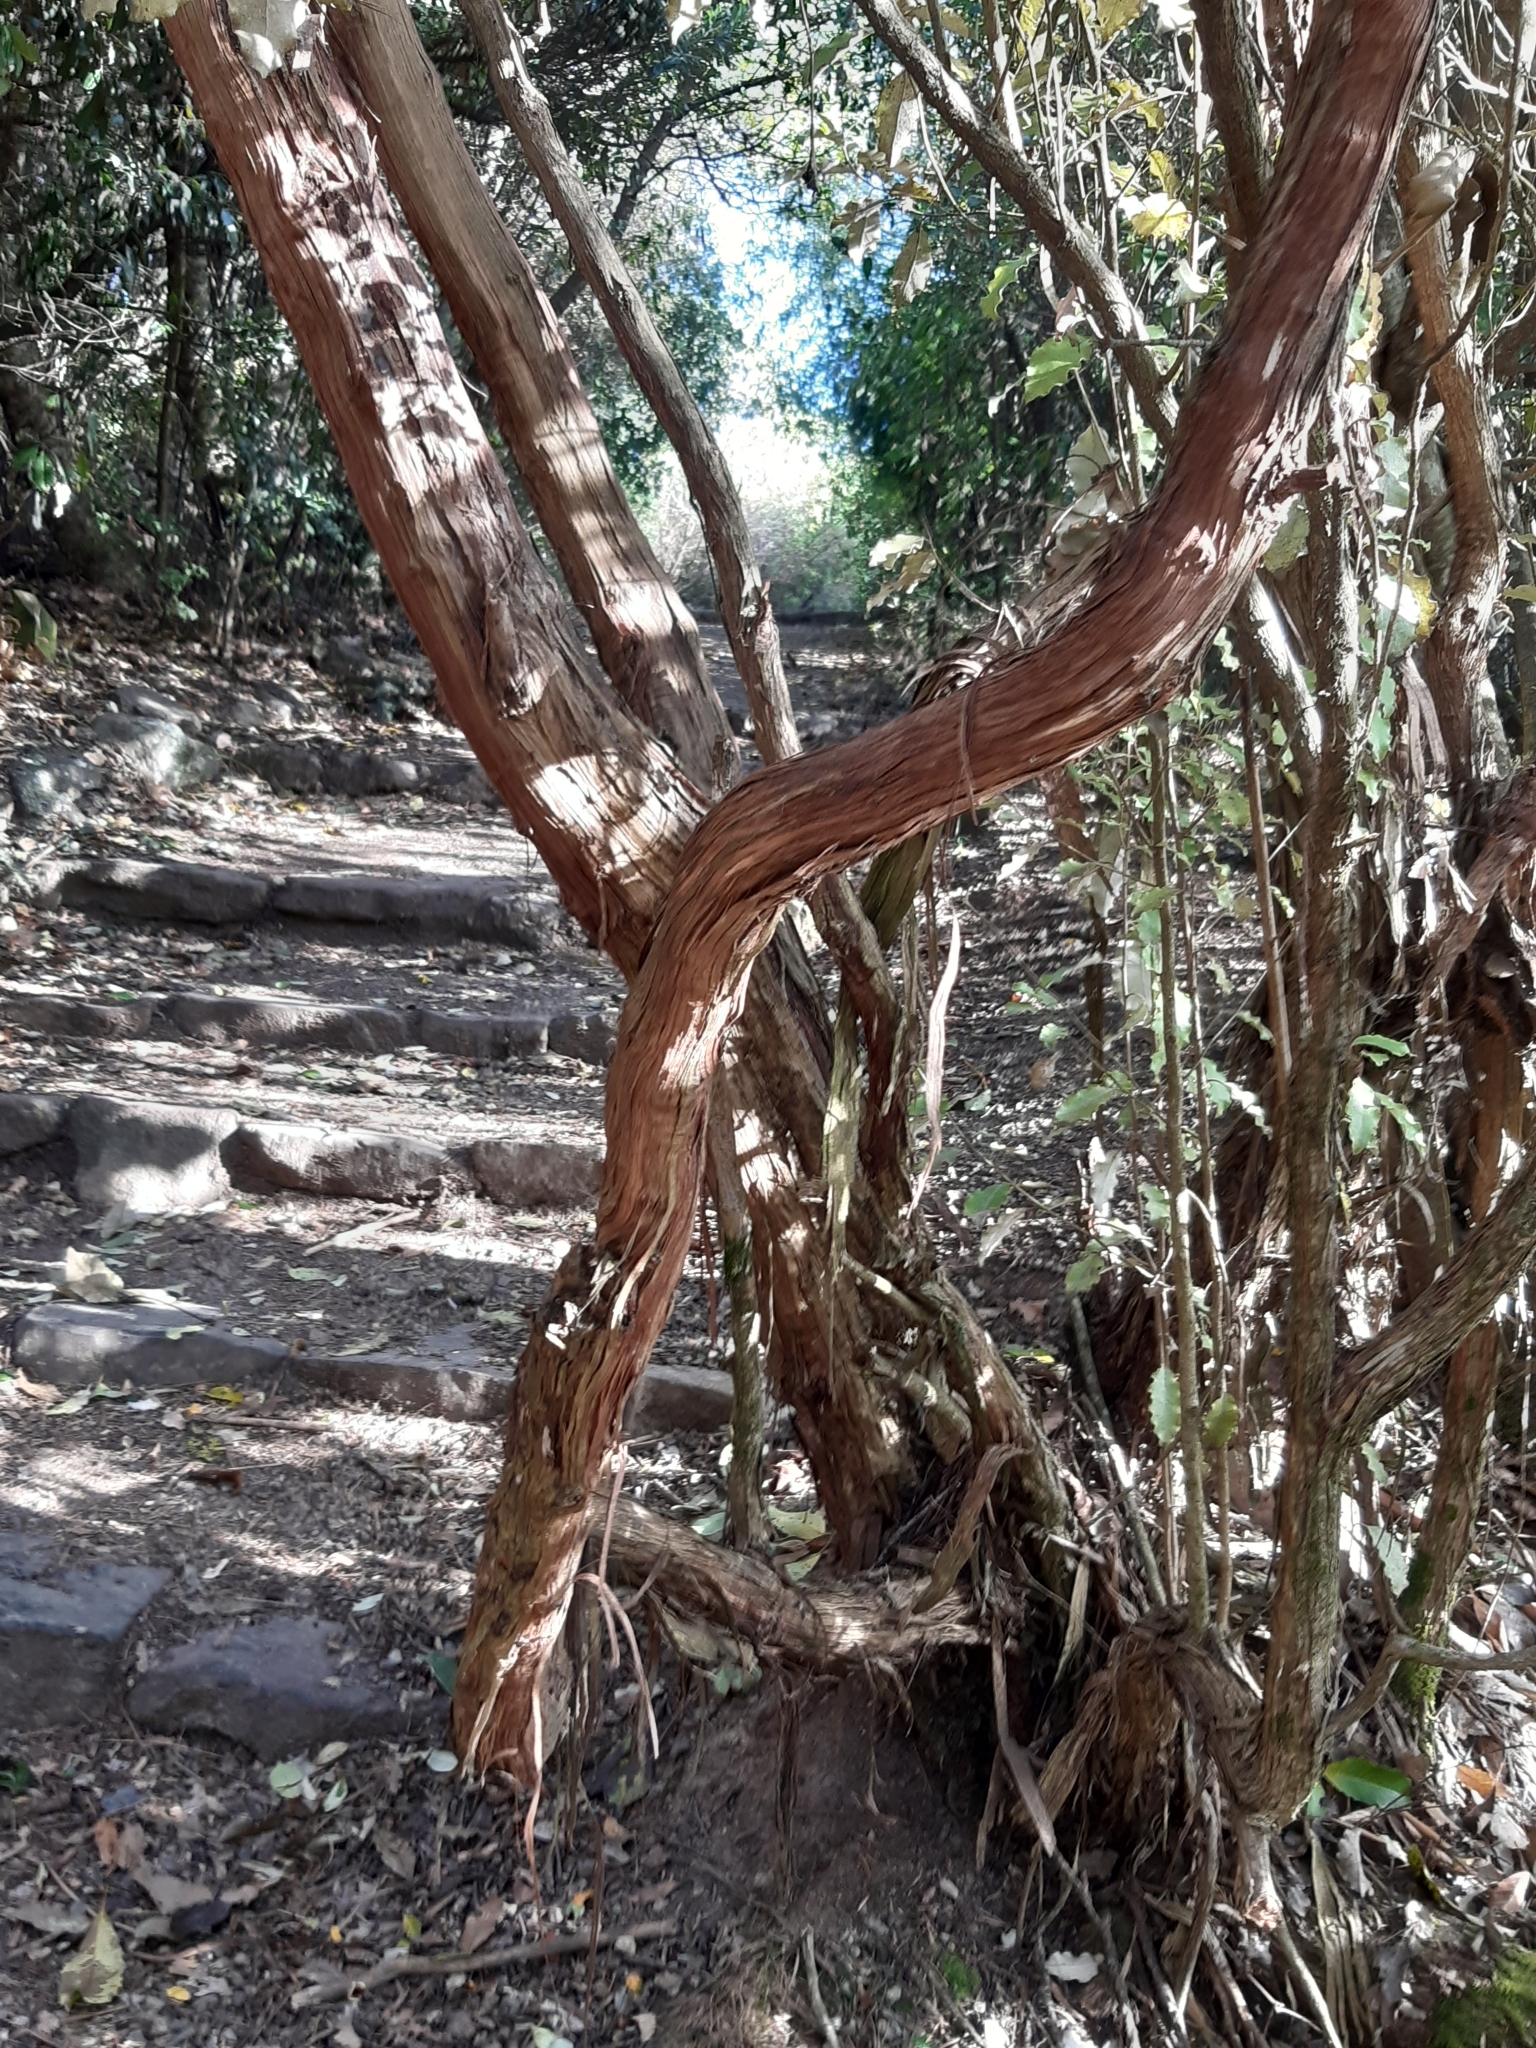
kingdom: Plantae
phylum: Tracheophyta
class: Magnoliopsida
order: Asterales
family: Asteraceae
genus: Olearia
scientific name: Olearia paniculata
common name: Akiraho
